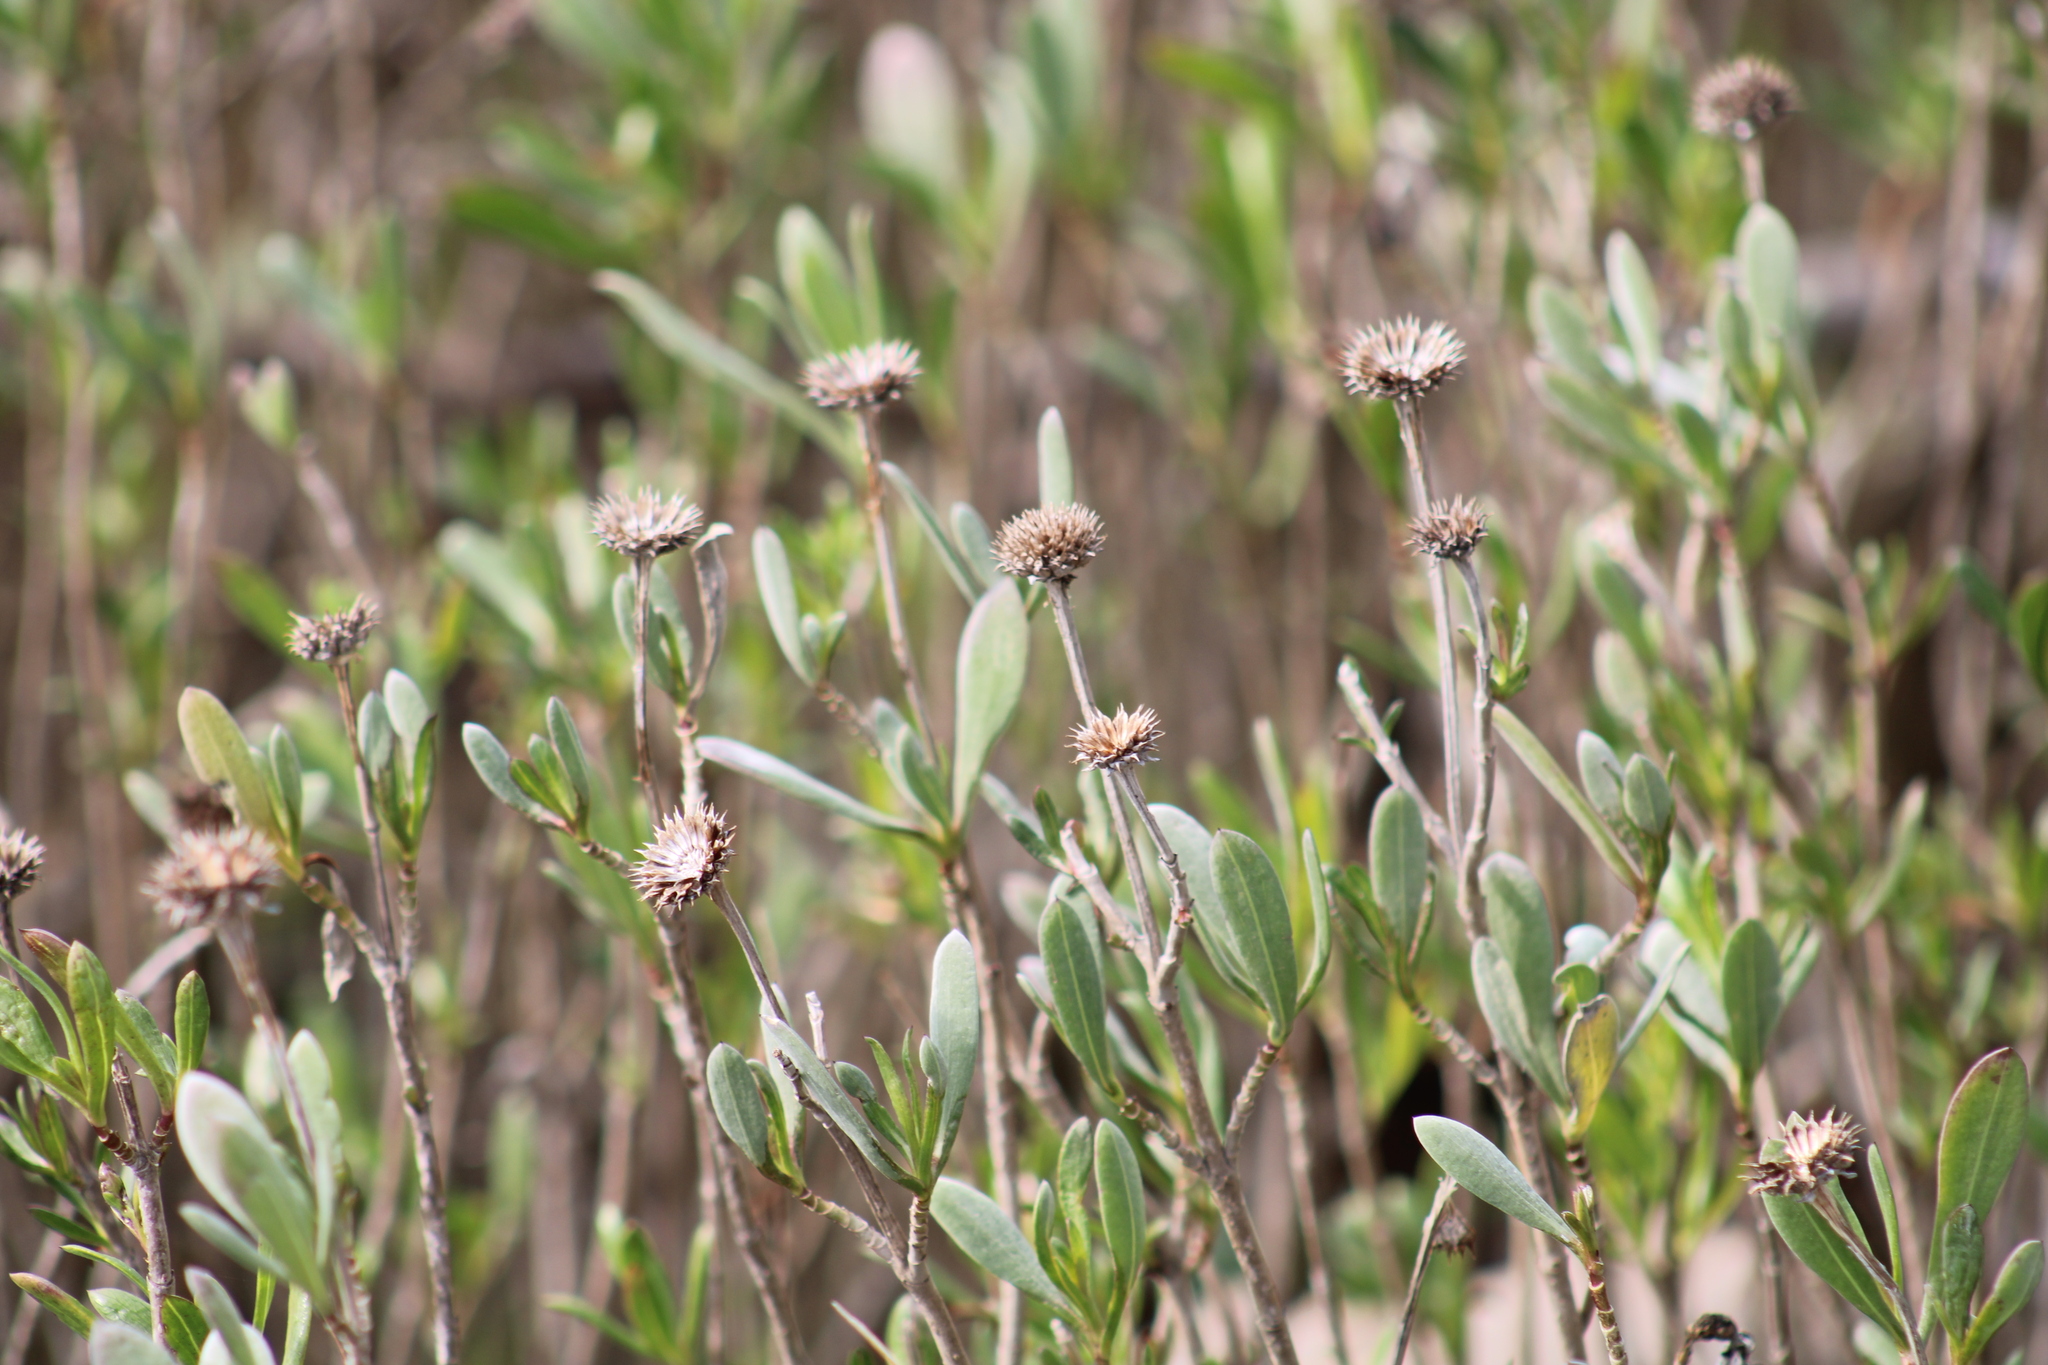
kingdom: Plantae
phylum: Tracheophyta
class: Magnoliopsida
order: Asterales
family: Asteraceae
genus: Borrichia
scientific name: Borrichia frutescens
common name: Sea oxeye
